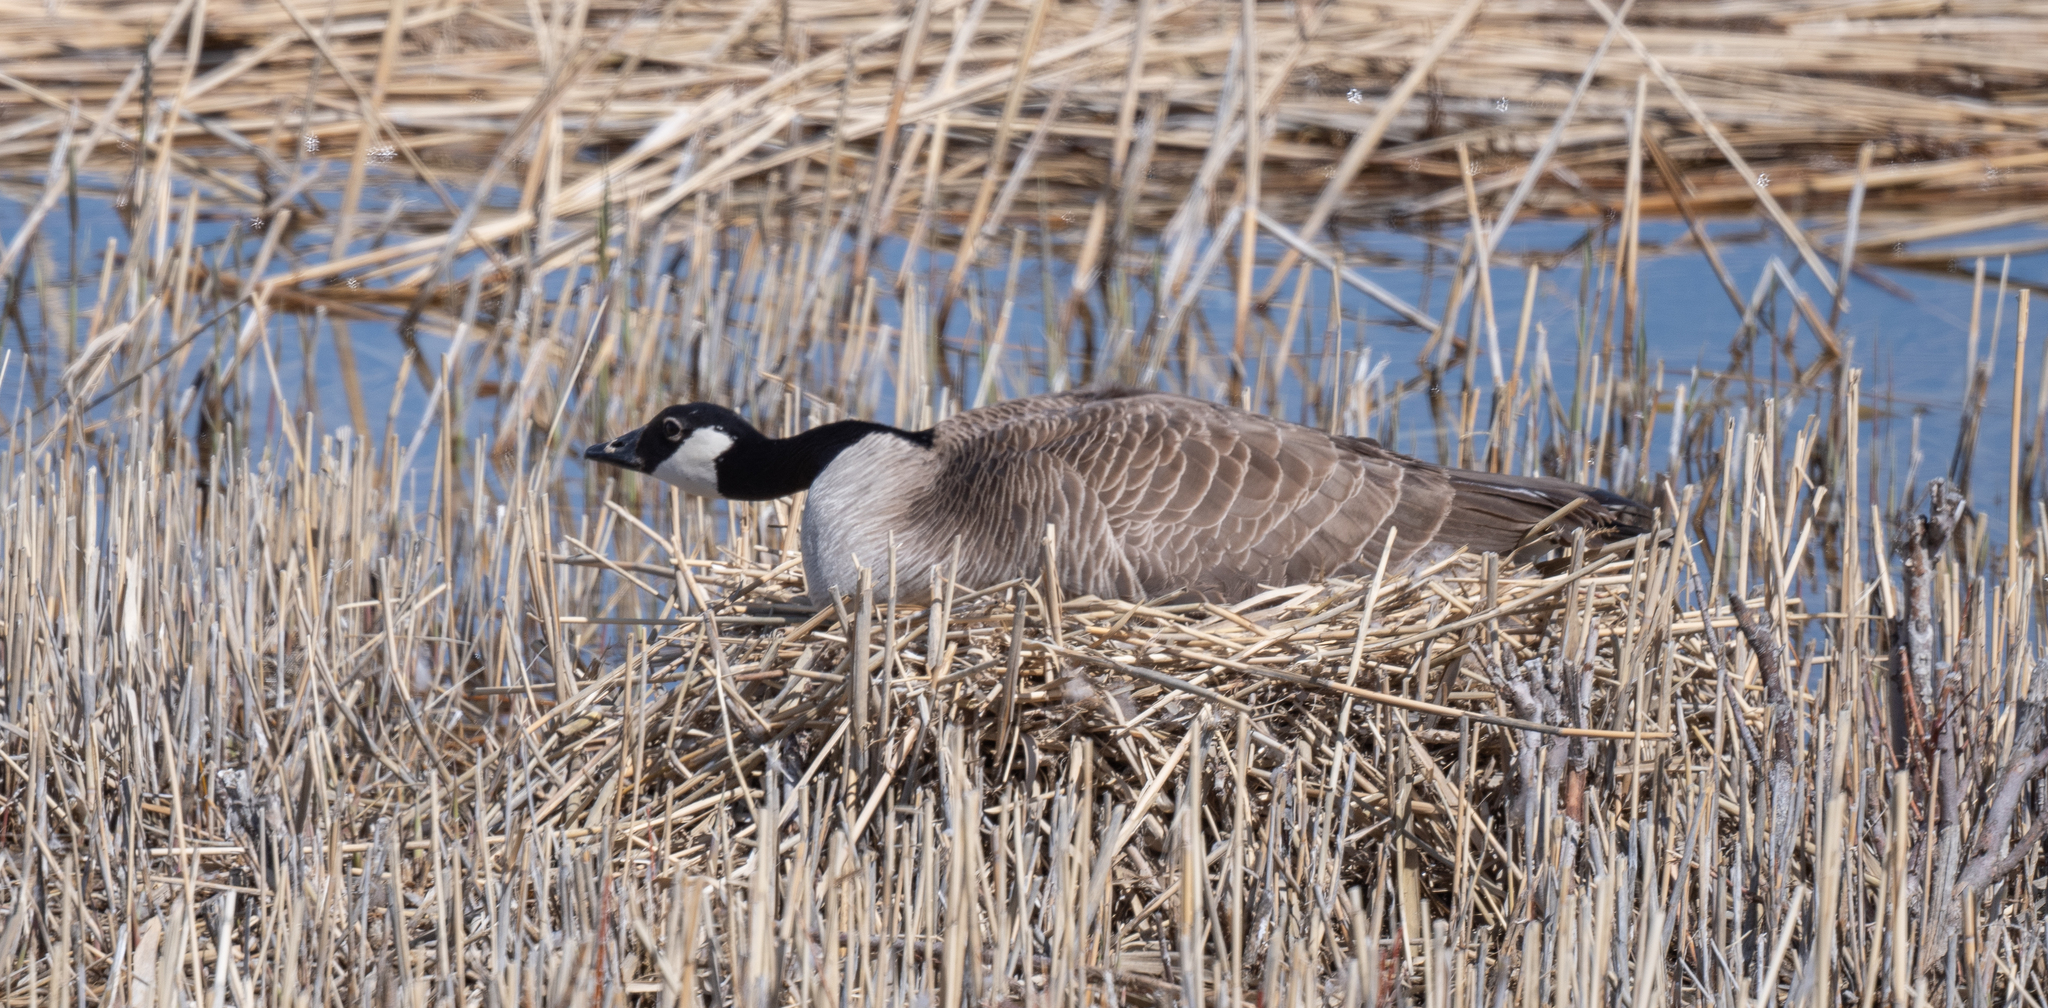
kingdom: Animalia
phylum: Chordata
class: Aves
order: Anseriformes
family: Anatidae
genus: Branta
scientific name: Branta canadensis
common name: Canada goose
